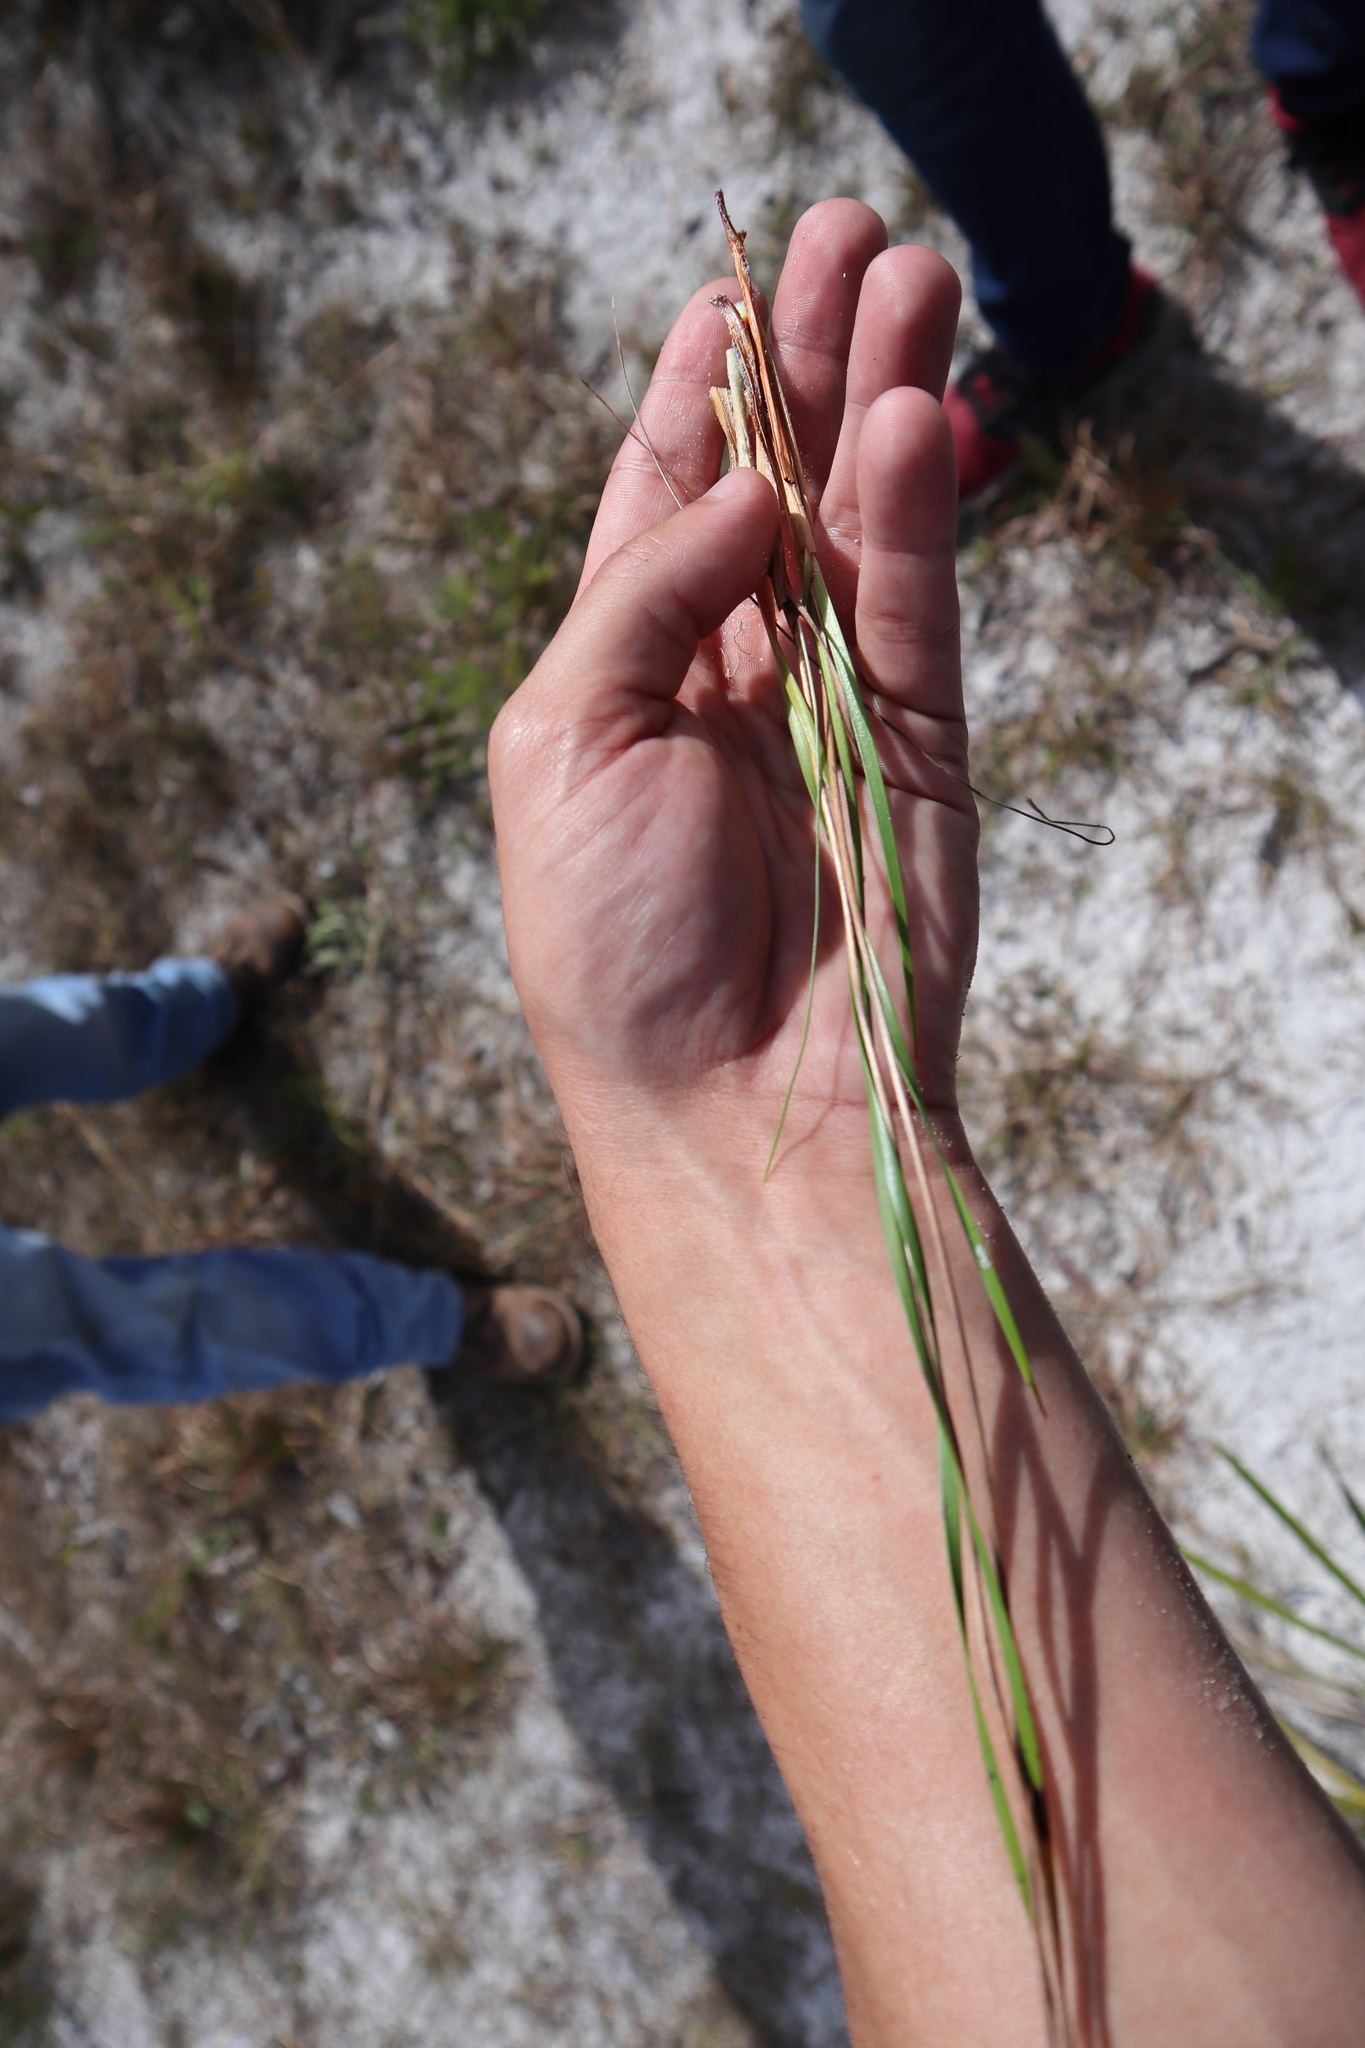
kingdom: Plantae
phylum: Tracheophyta
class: Liliopsida
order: Poales
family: Xyridaceae
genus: Xyris
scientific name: Xyris caroliniana
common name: Carolina yellow-eyed-grass
